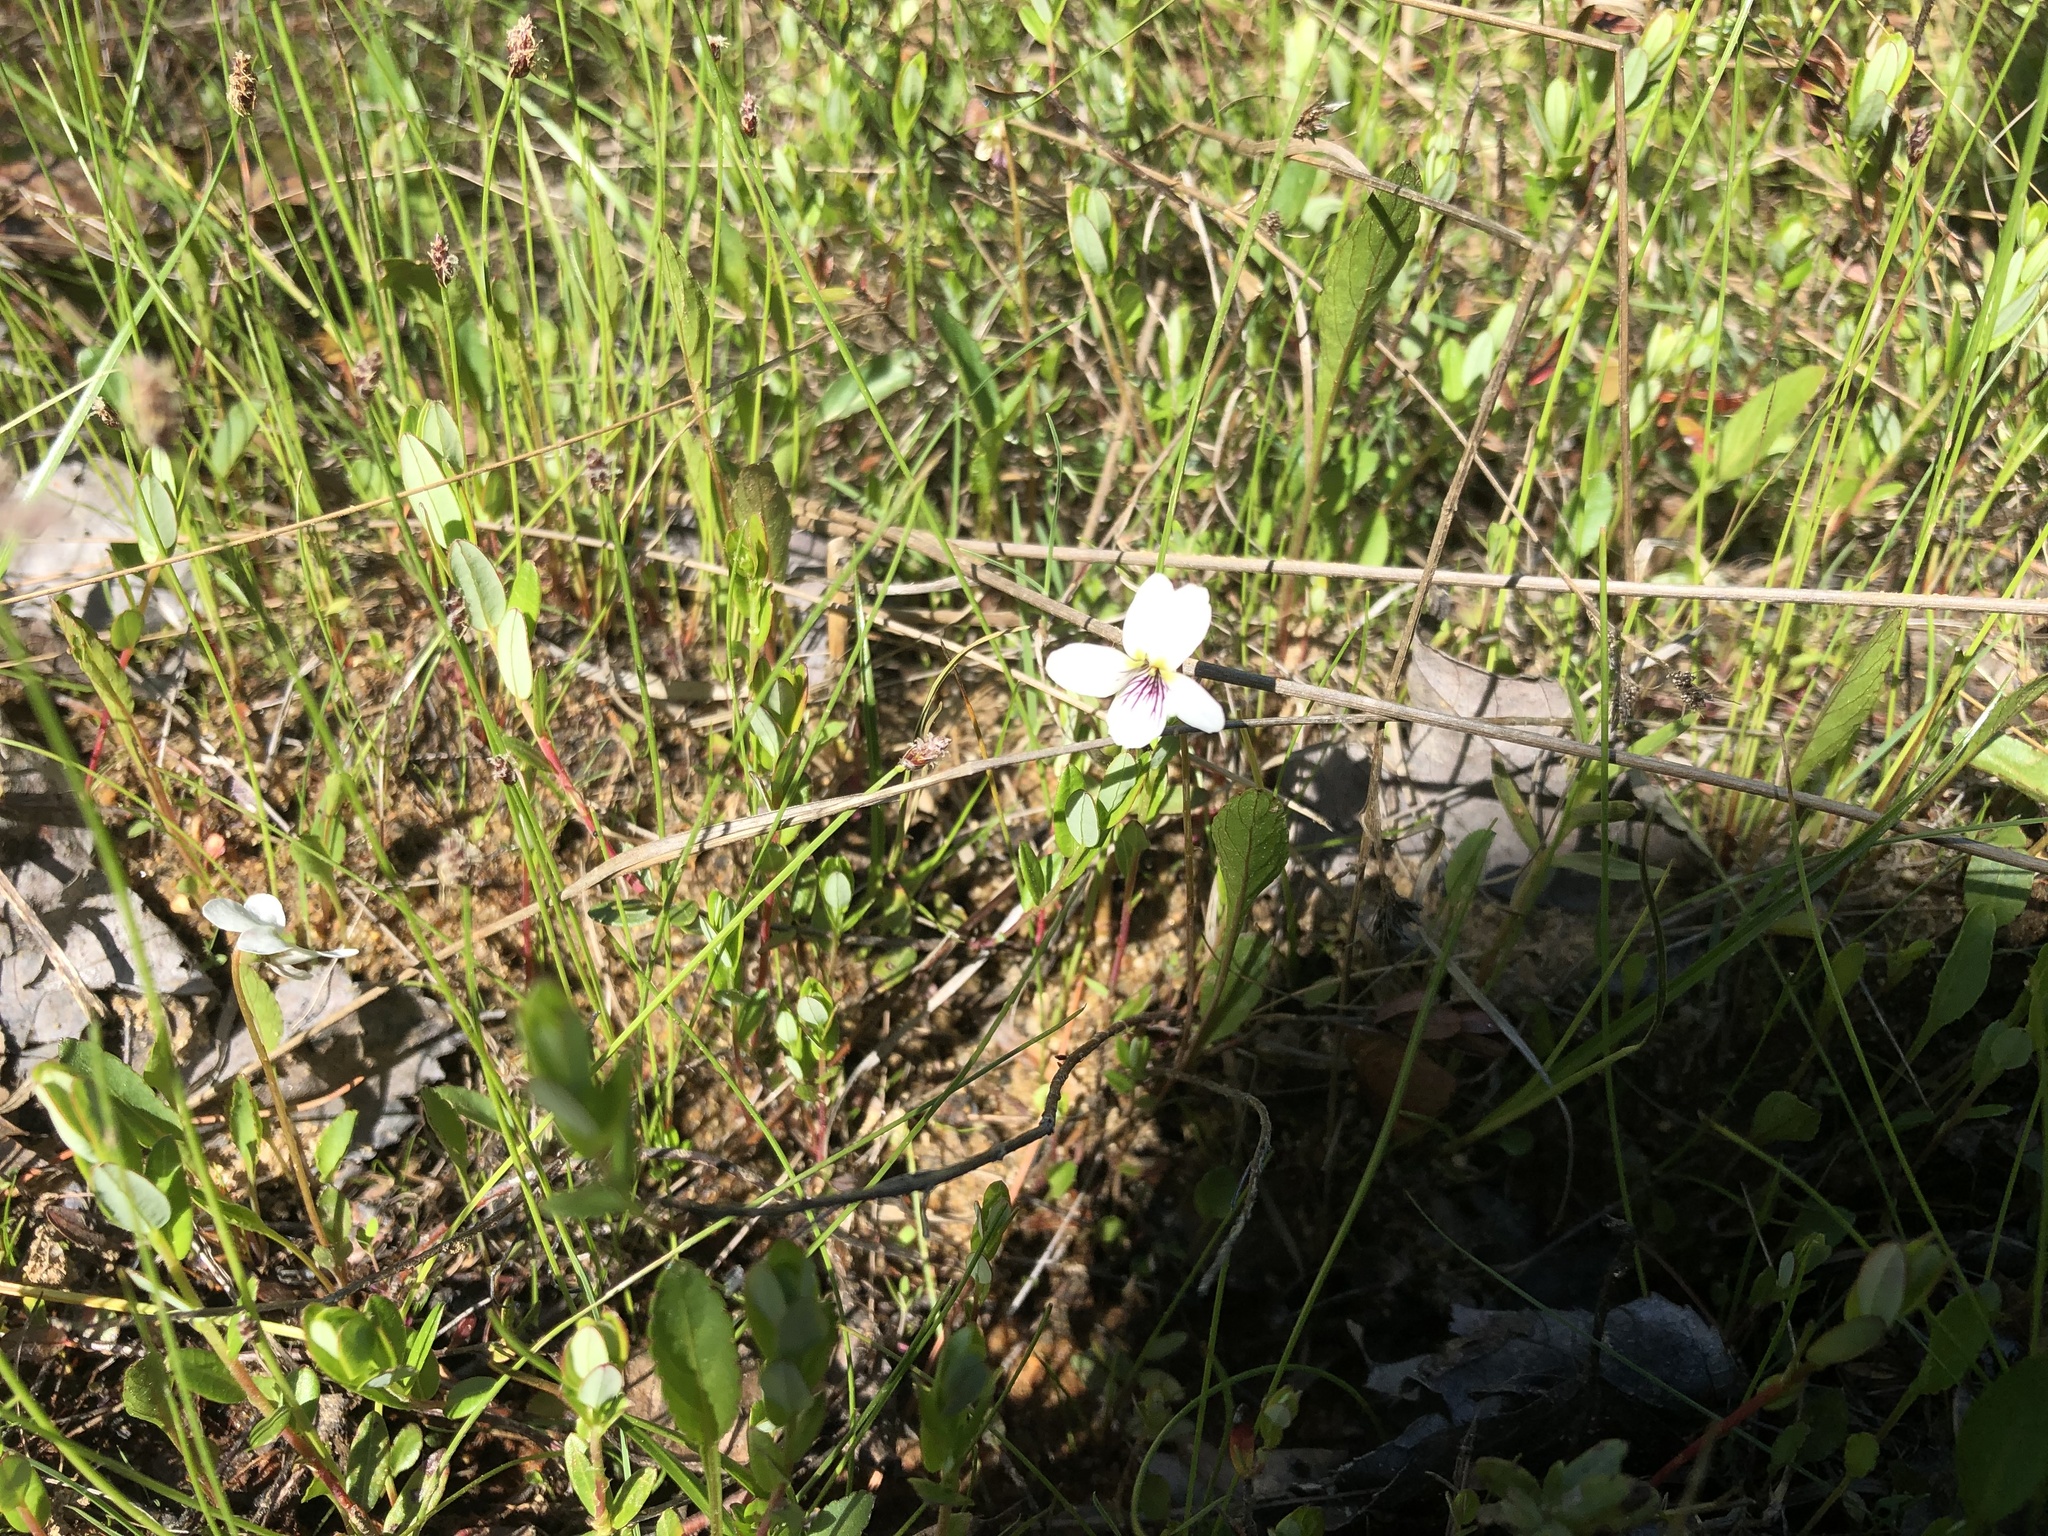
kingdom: Plantae
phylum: Tracheophyta
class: Magnoliopsida
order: Malpighiales
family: Violaceae
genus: Viola
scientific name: Viola lanceolata
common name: Bog white violet
